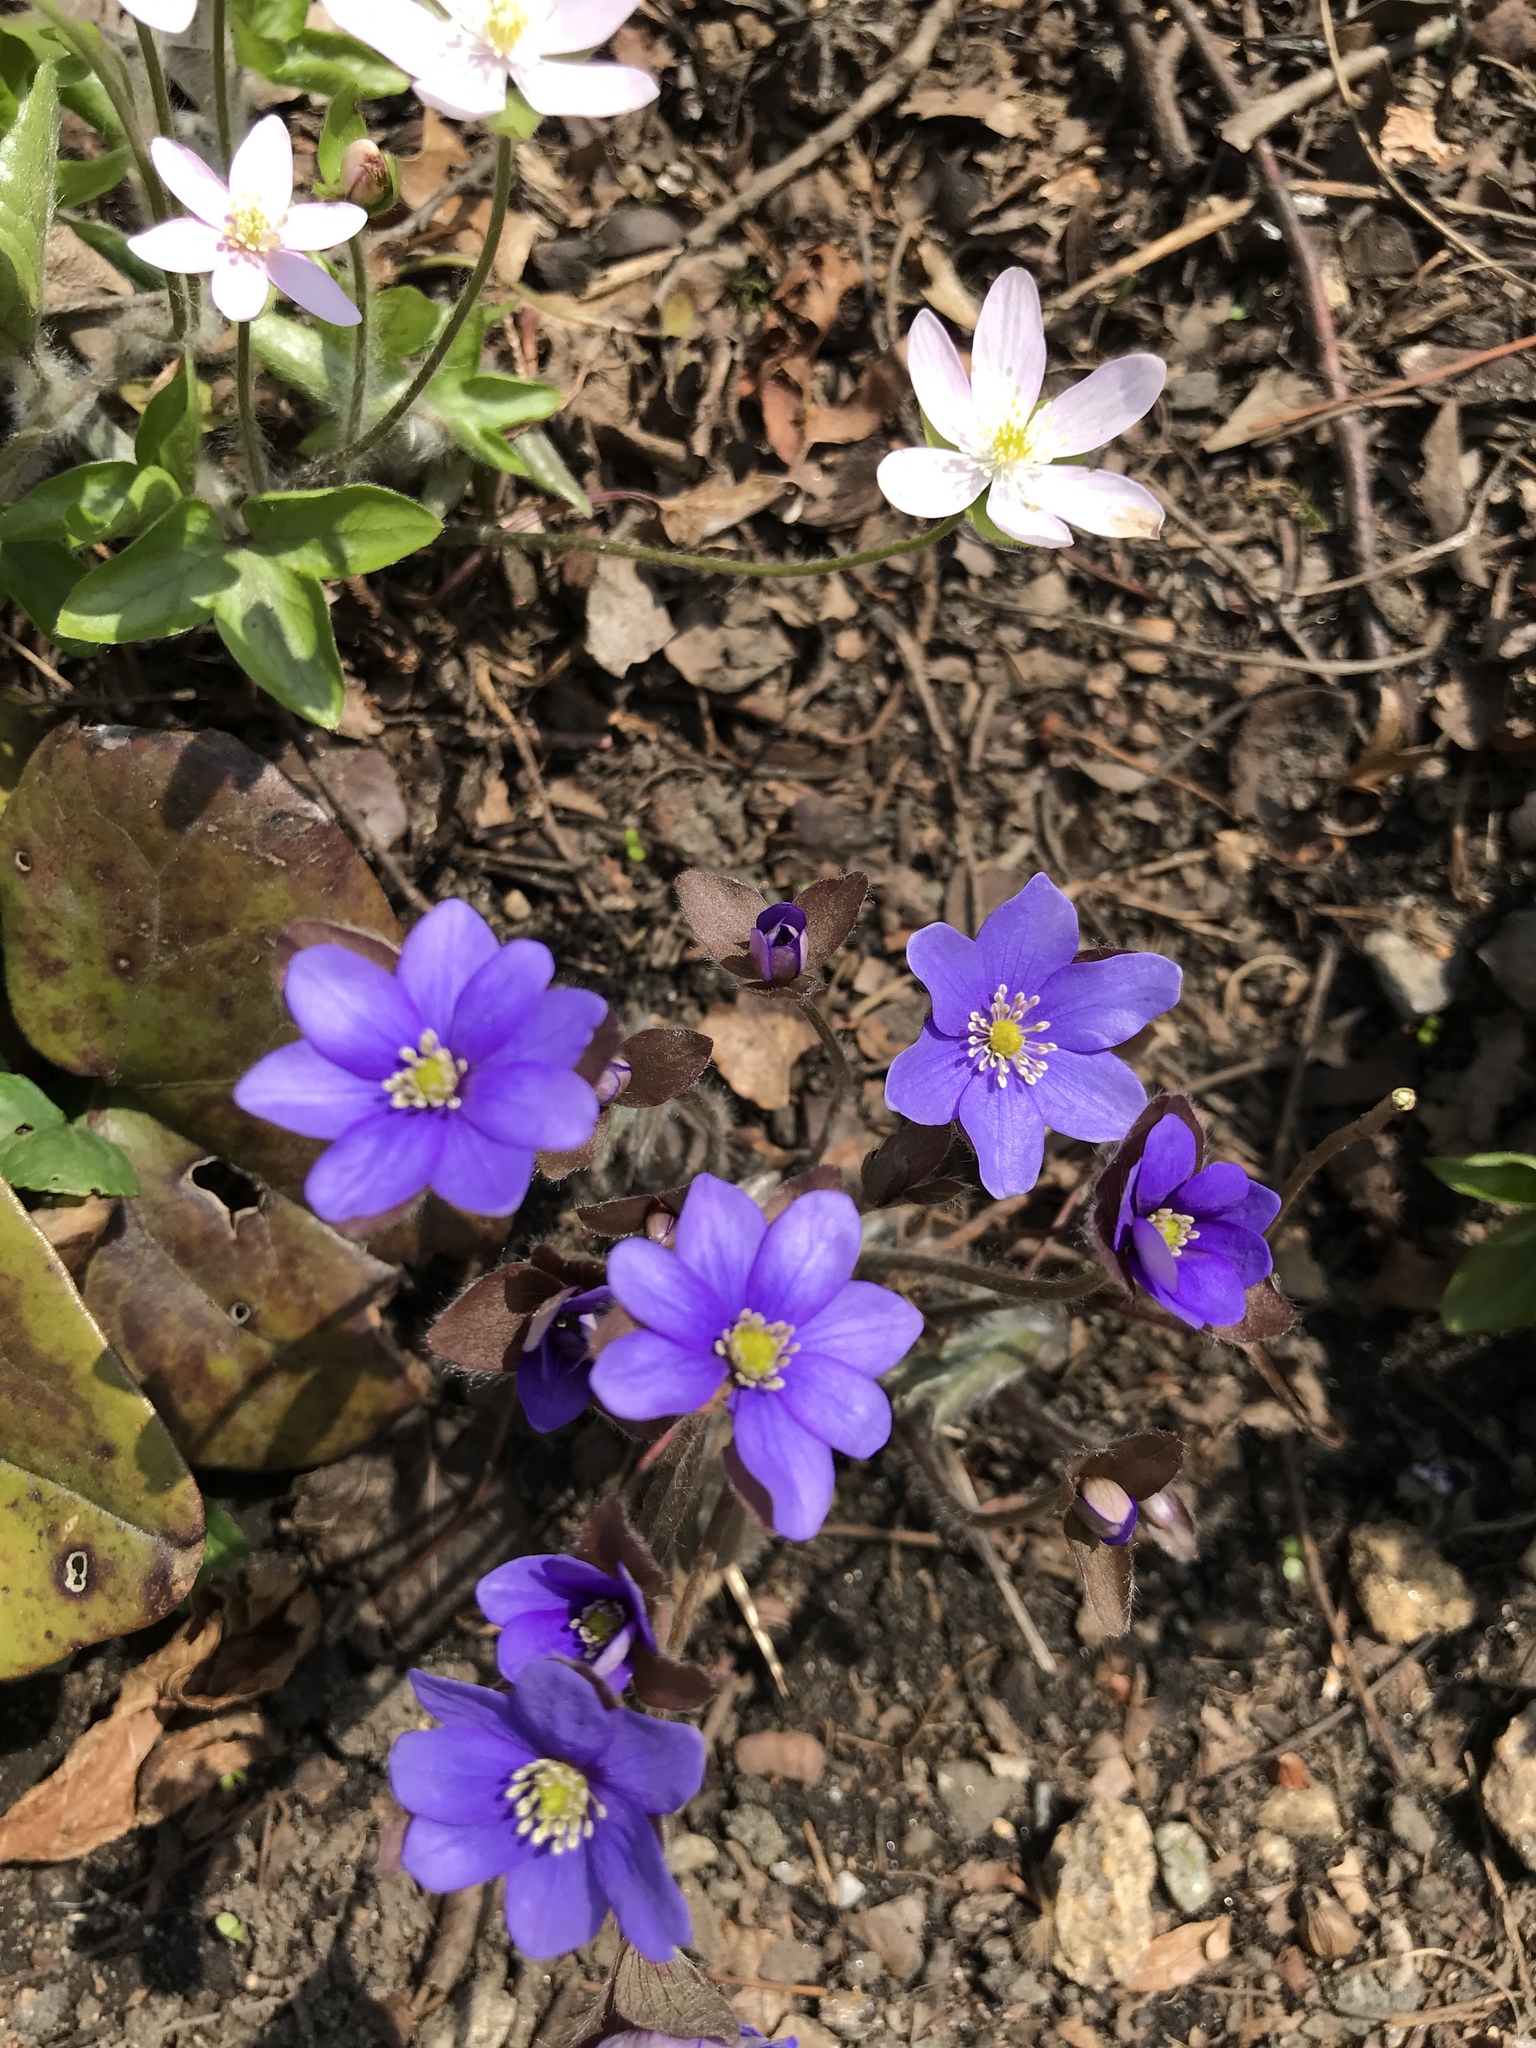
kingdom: Plantae
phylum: Tracheophyta
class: Magnoliopsida
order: Ranunculales
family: Ranunculaceae
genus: Hepatica
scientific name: Hepatica acutiloba
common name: Sharp-lobed hepatica
